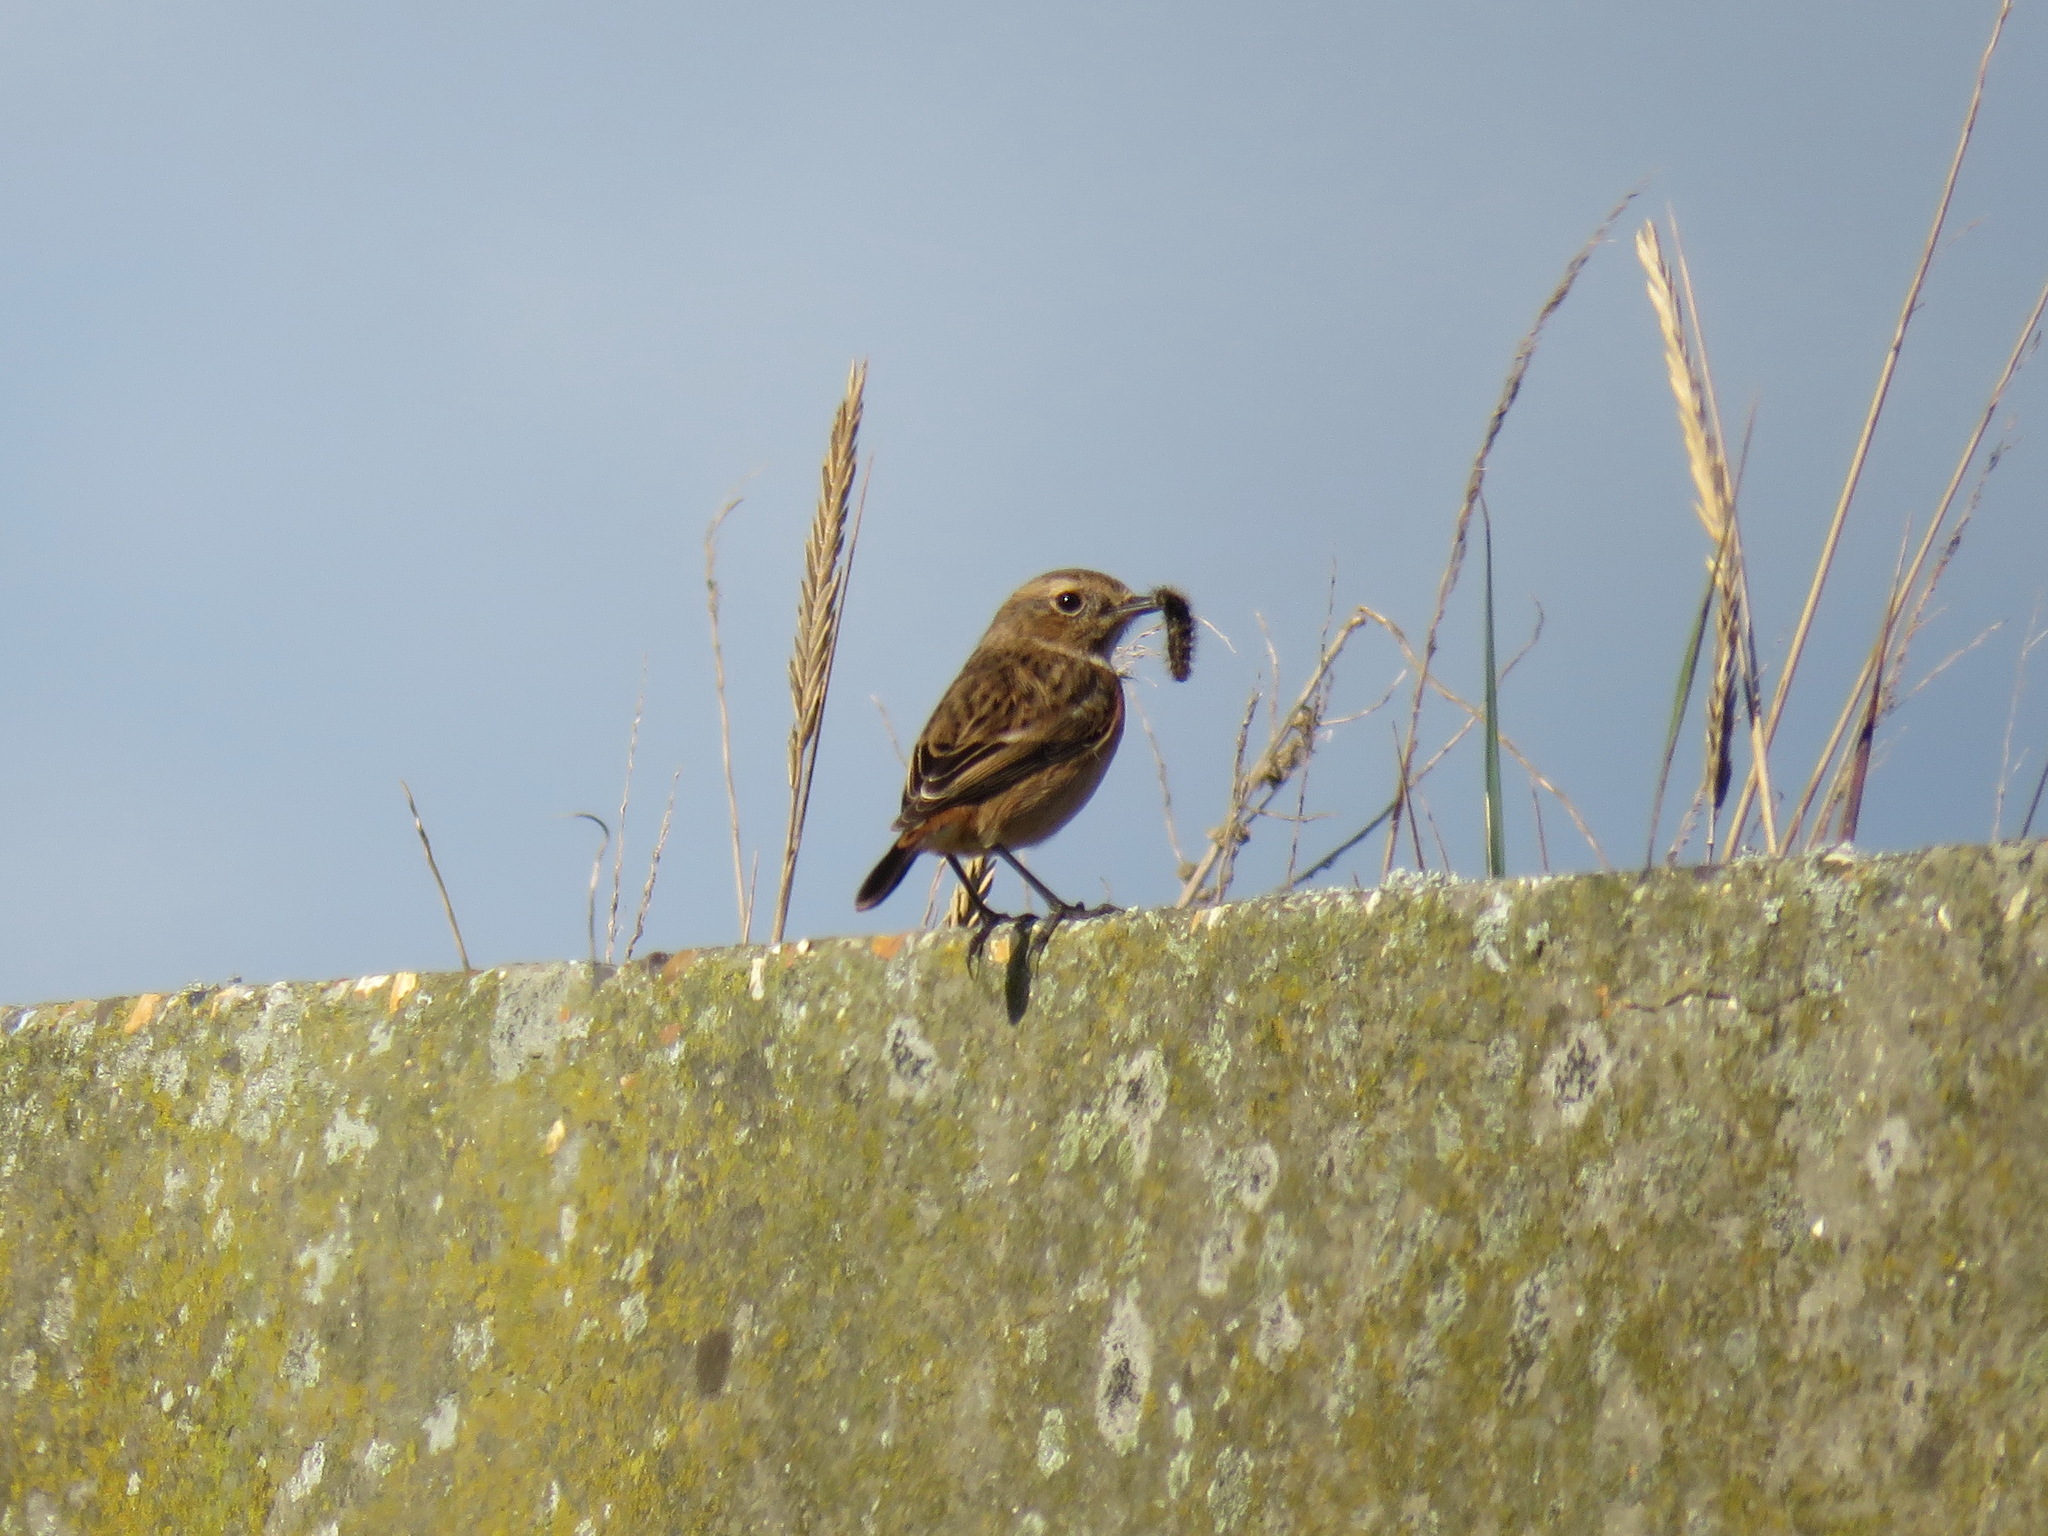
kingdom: Animalia
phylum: Chordata
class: Aves
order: Passeriformes
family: Muscicapidae
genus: Saxicola
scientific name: Saxicola rubicola
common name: European stonechat
